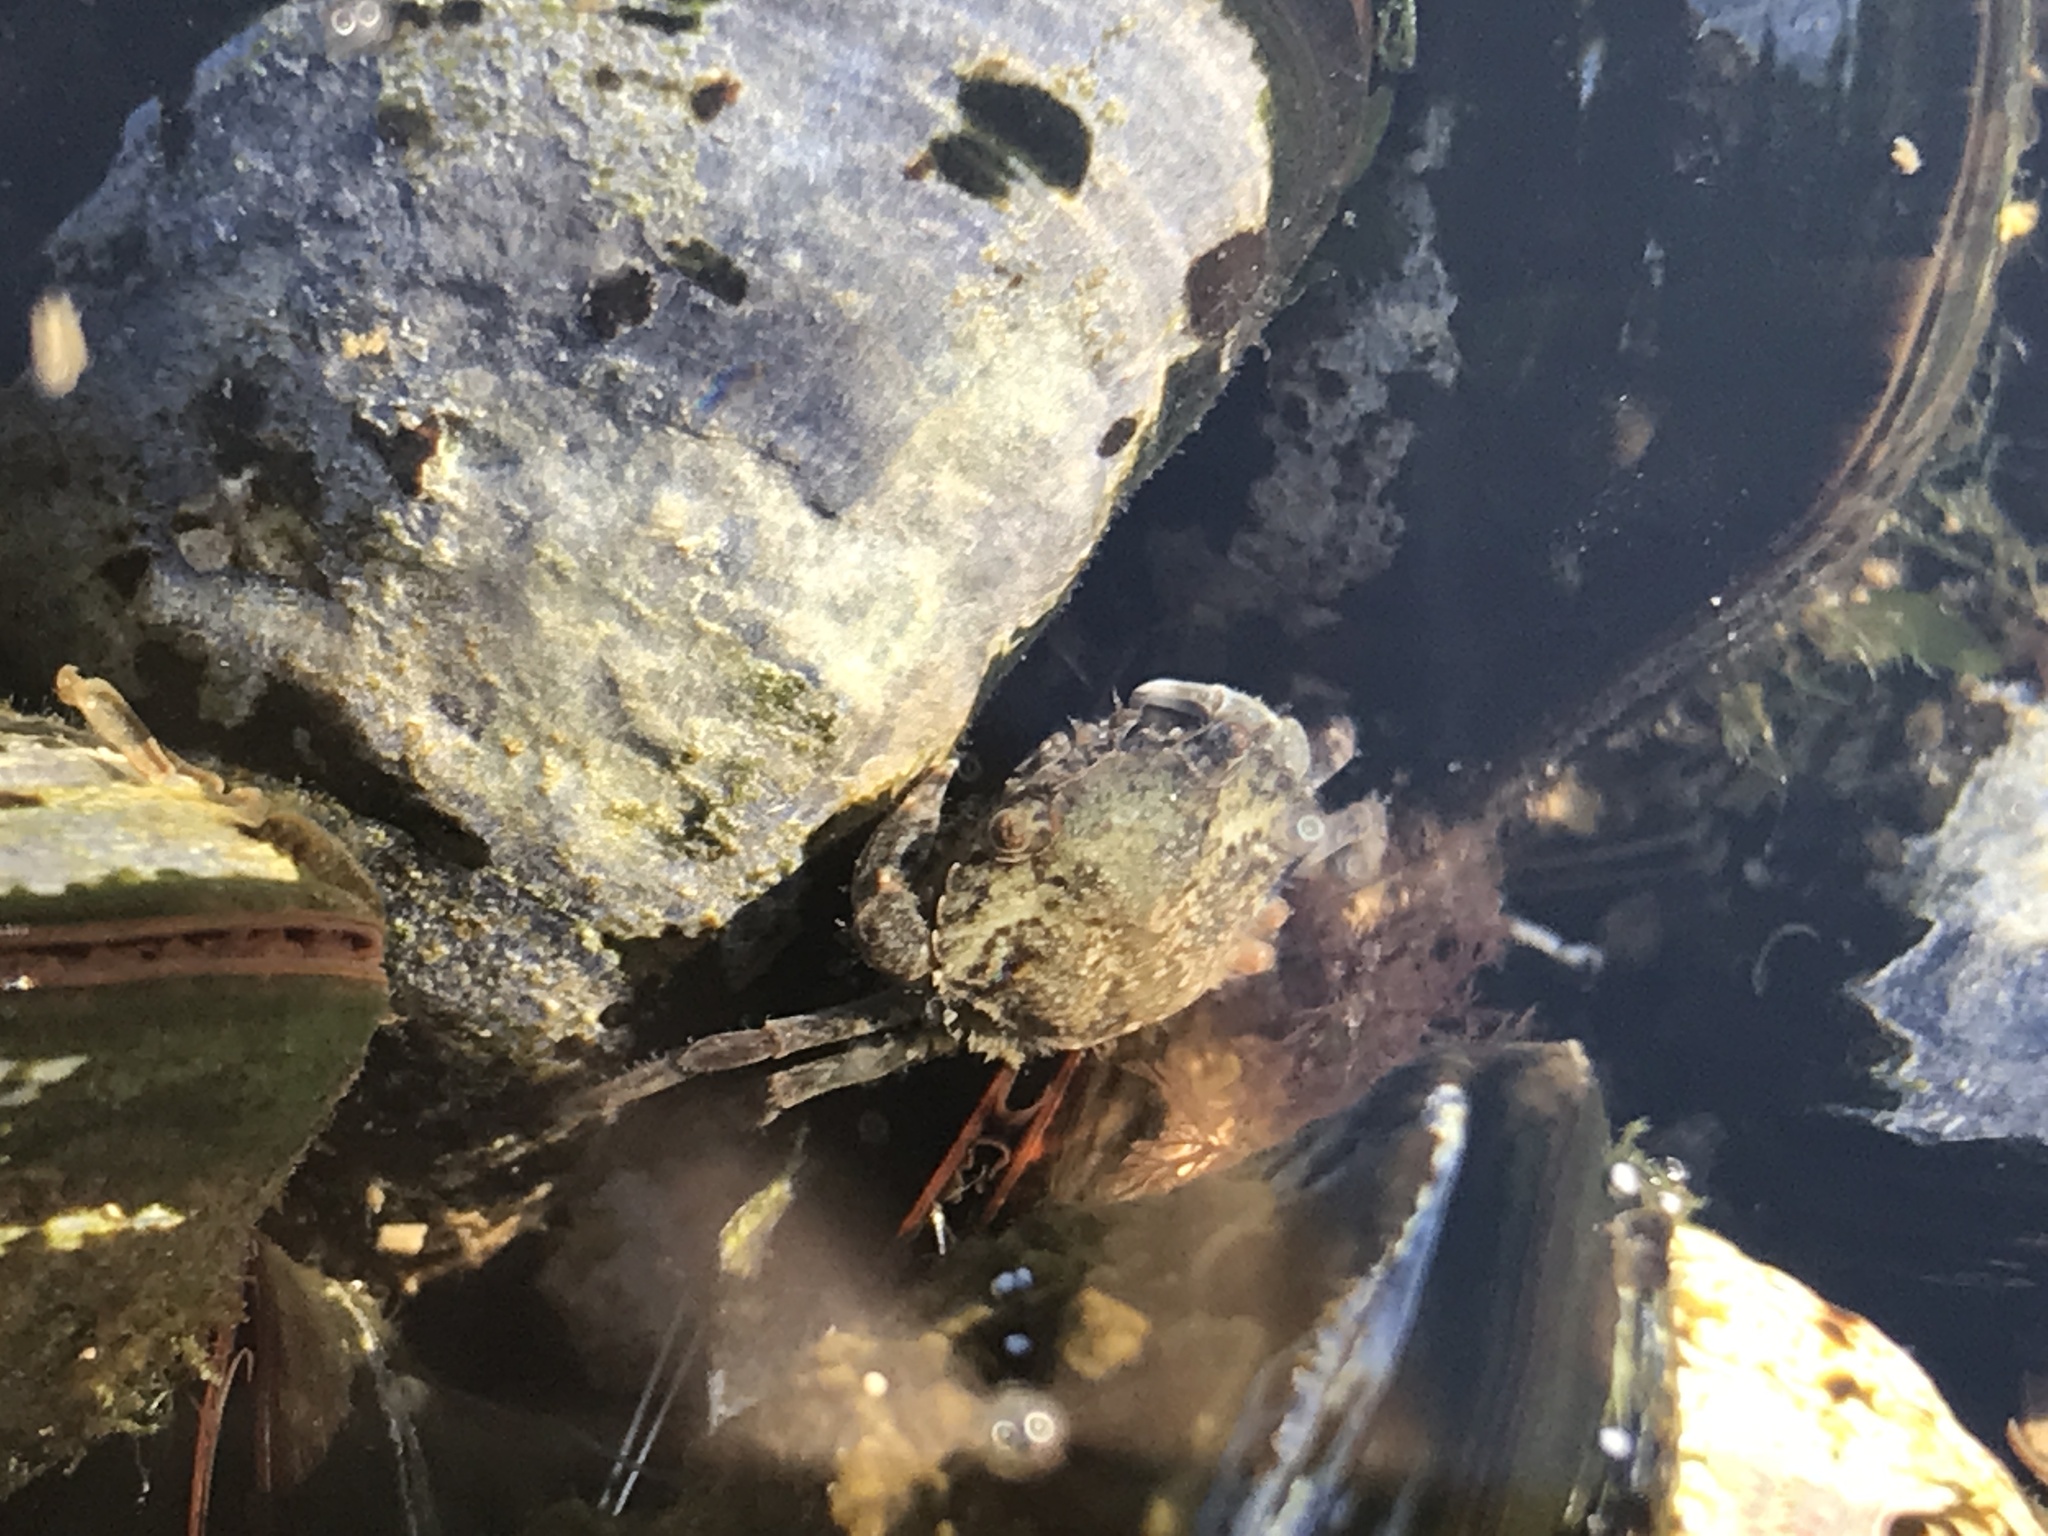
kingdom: Animalia
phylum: Arthropoda
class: Malacostraca
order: Decapoda
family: Carcinidae
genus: Carcinus
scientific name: Carcinus maenas
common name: European green crab
